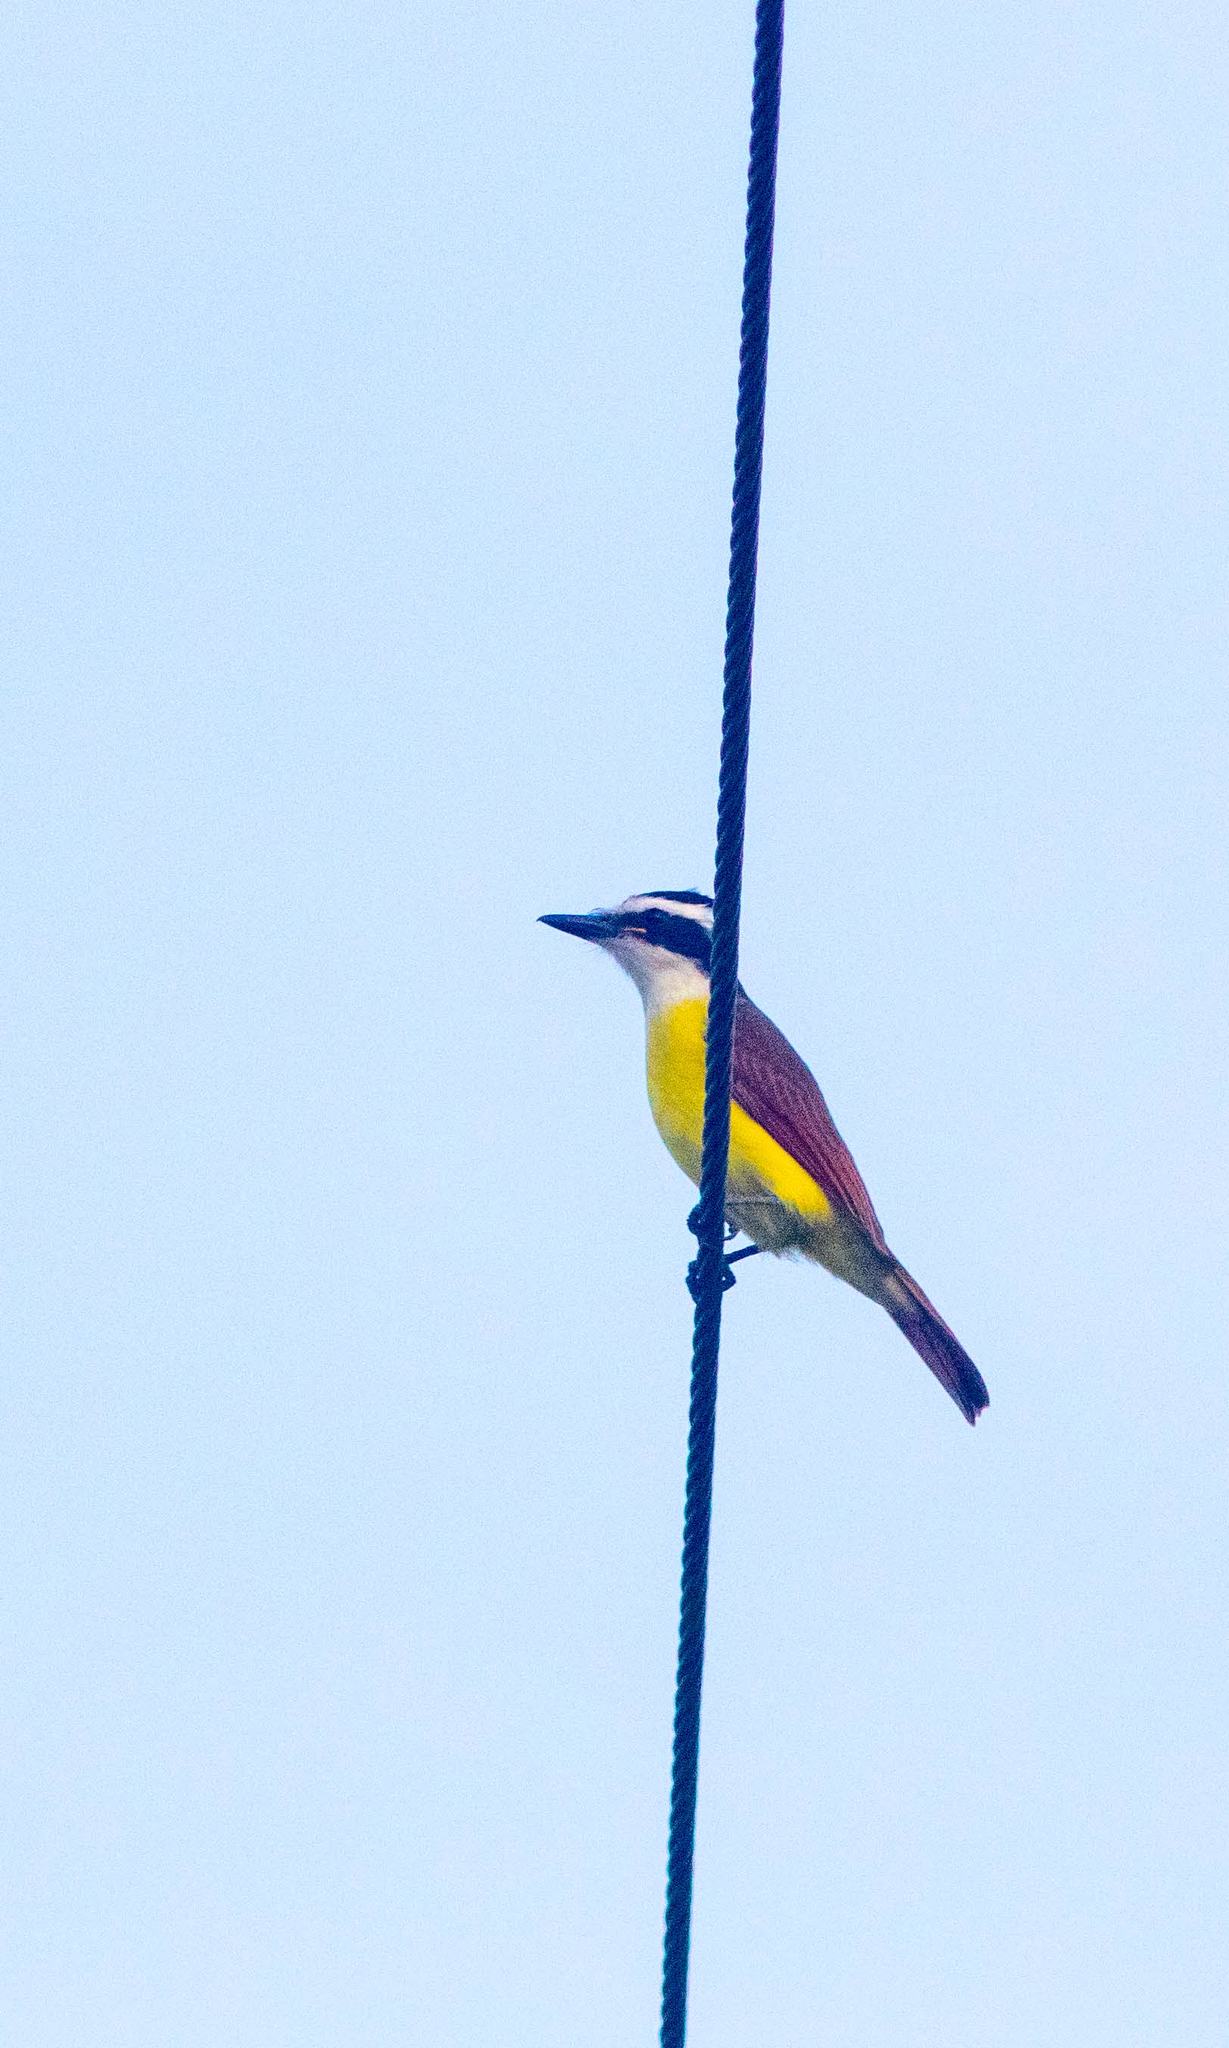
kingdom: Animalia
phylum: Chordata
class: Aves
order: Passeriformes
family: Tyrannidae
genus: Pitangus
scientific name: Pitangus sulphuratus
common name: Great kiskadee
